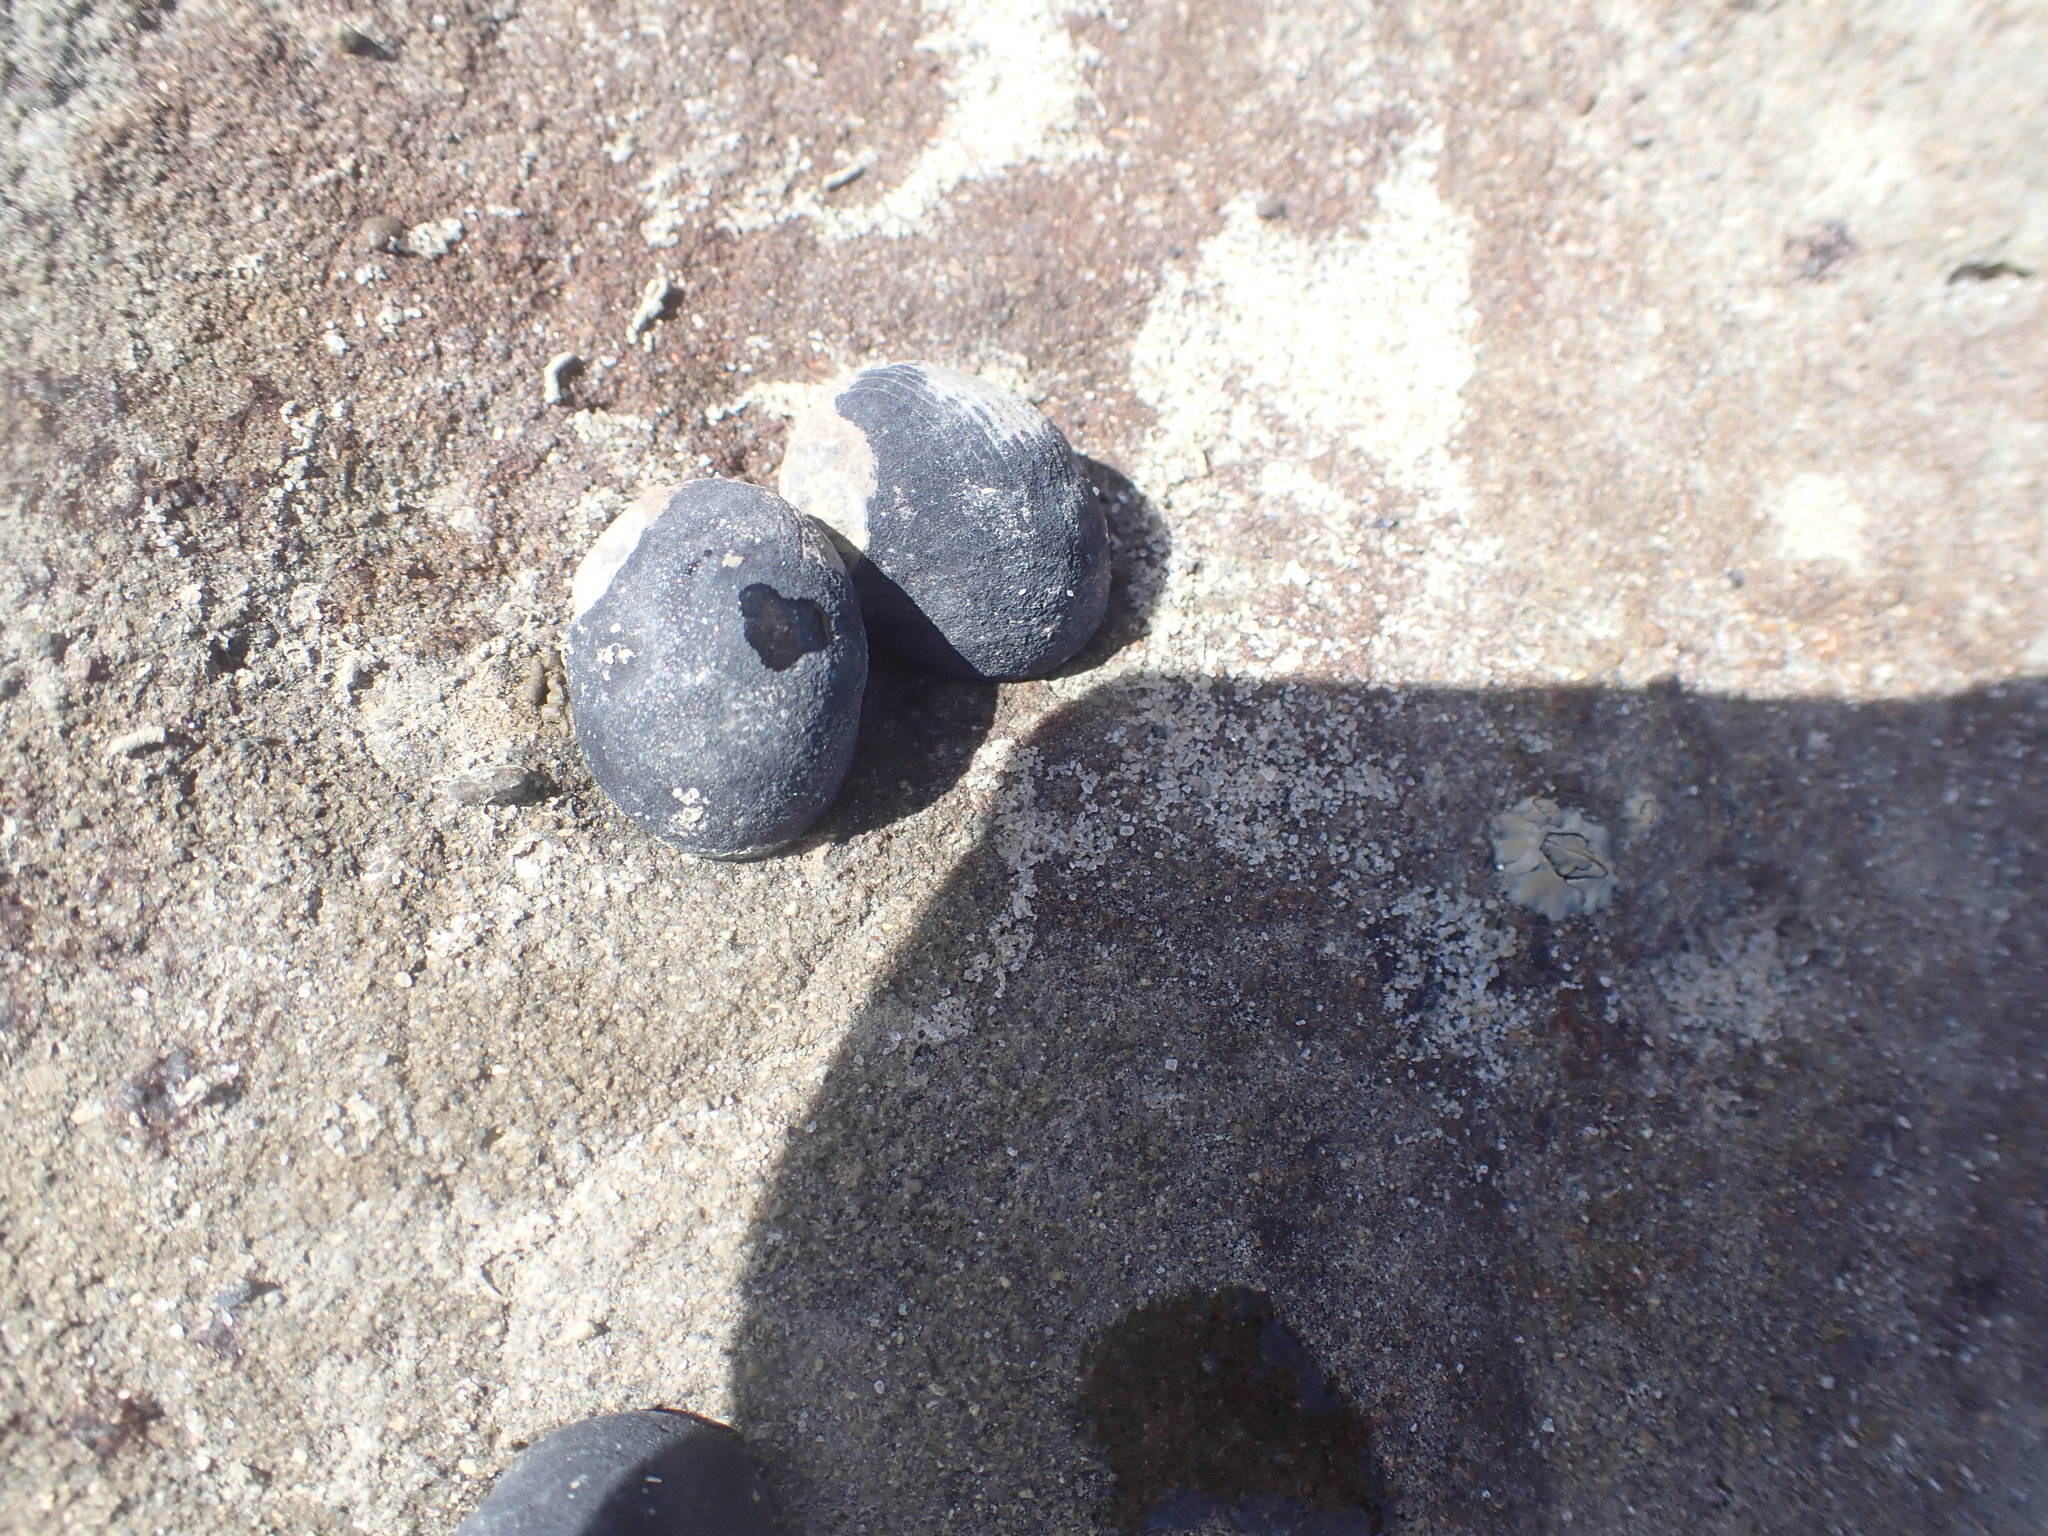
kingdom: Animalia
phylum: Mollusca
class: Gastropoda
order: Cycloneritida
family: Neritidae
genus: Nerita
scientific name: Nerita melanotragus
